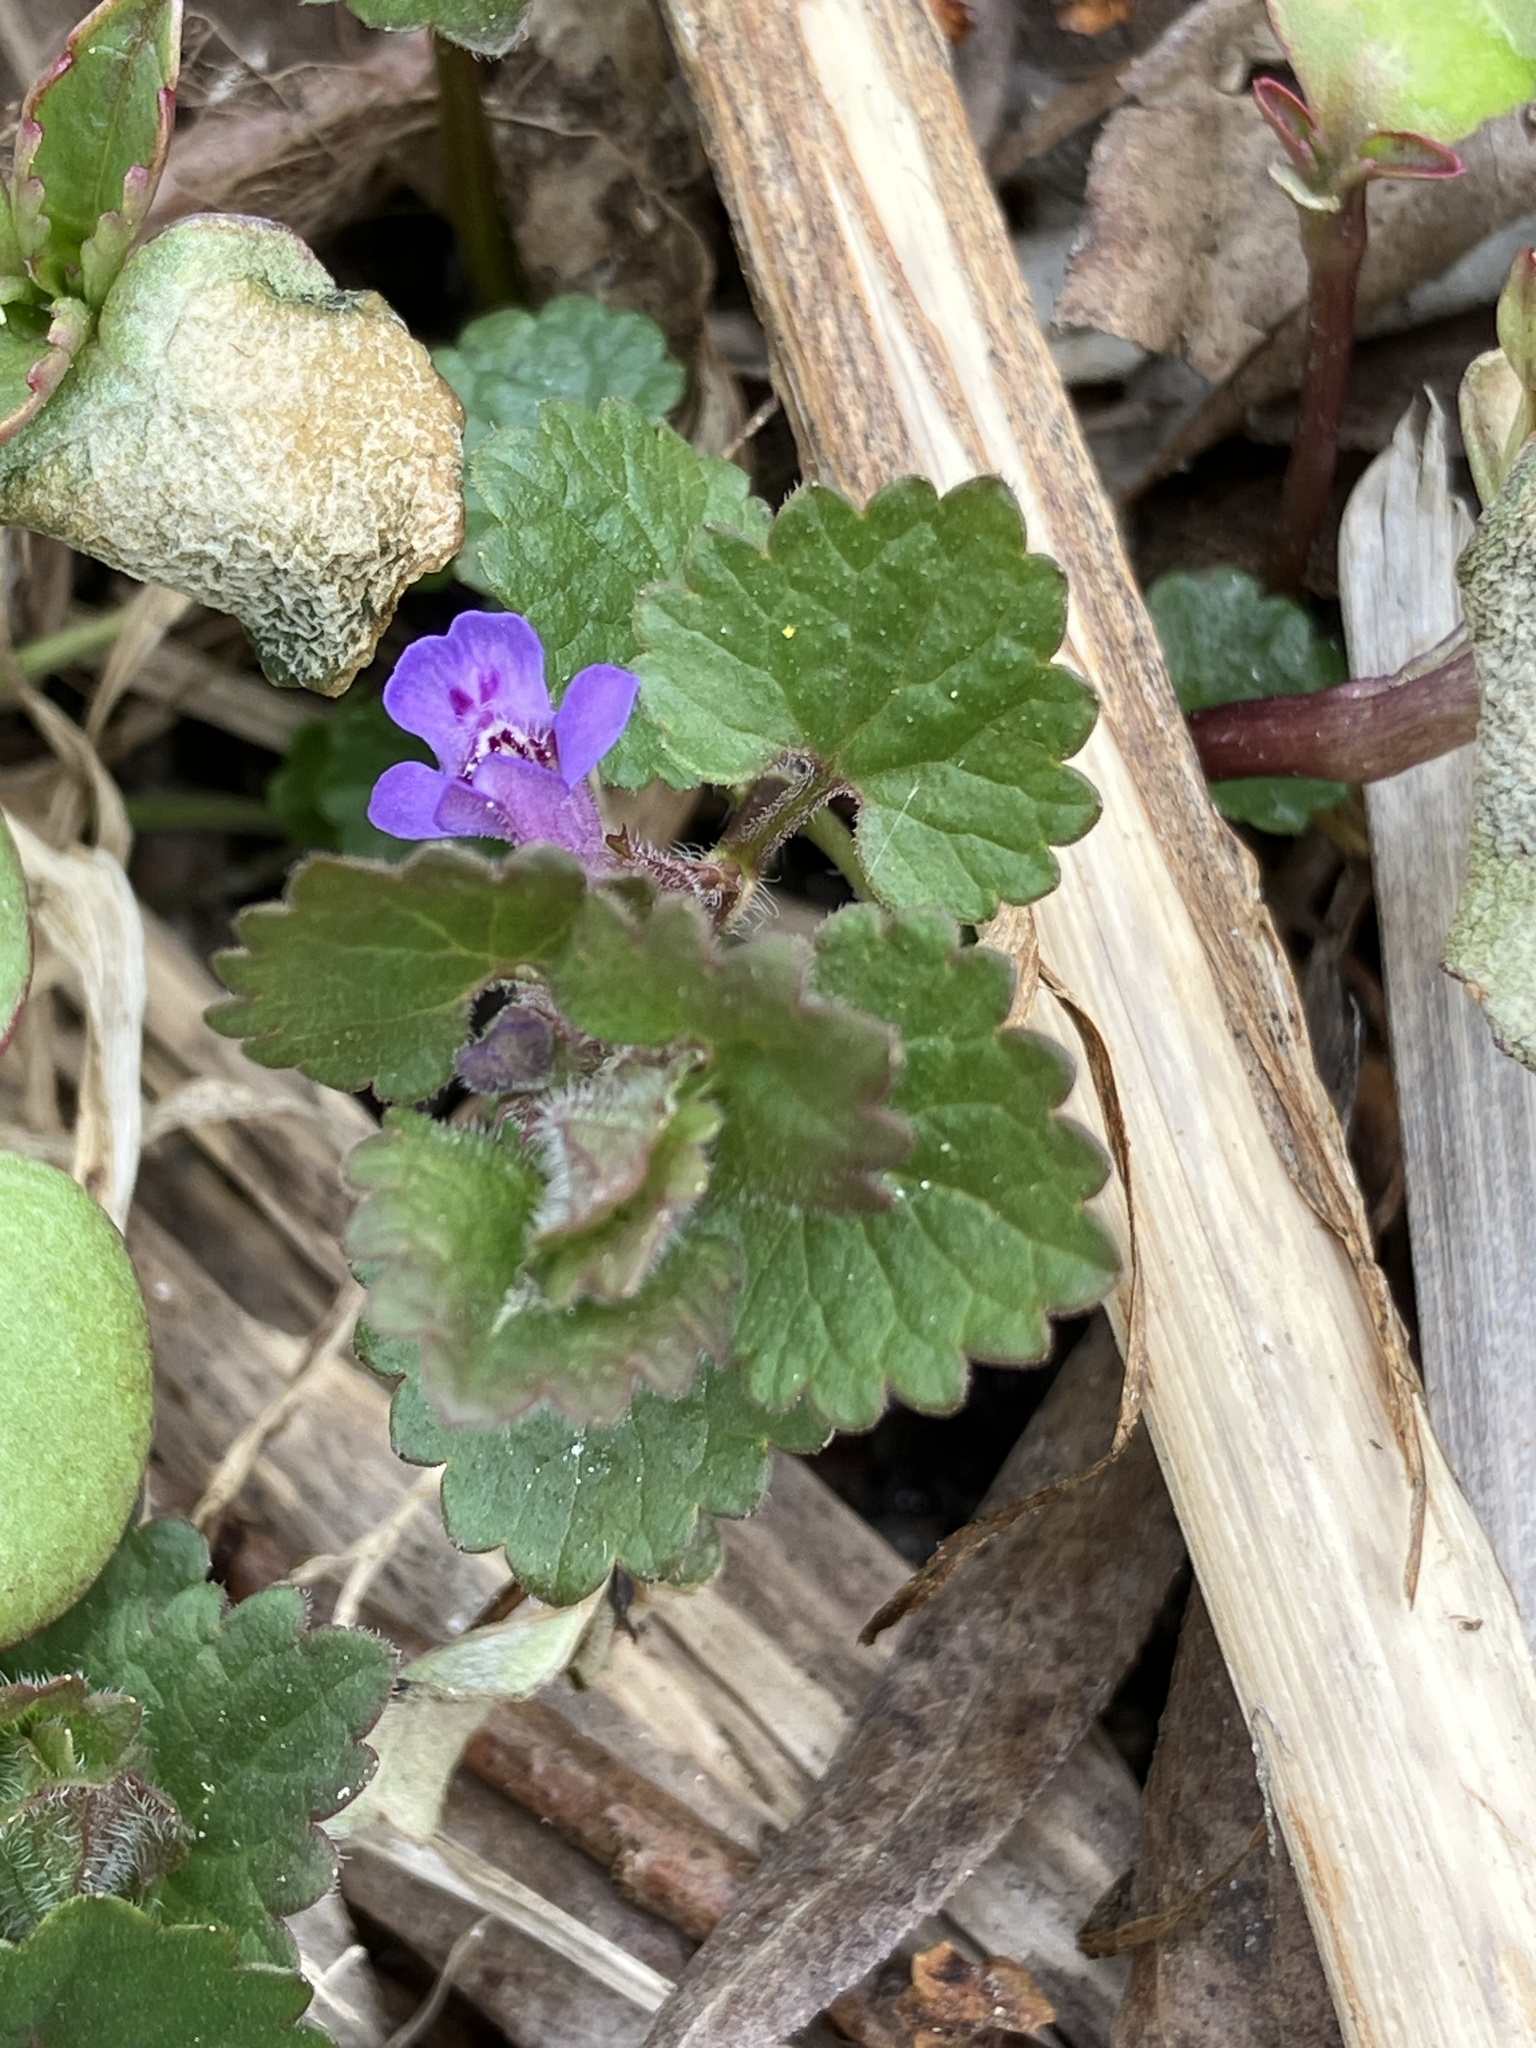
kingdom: Plantae
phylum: Tracheophyta
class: Magnoliopsida
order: Lamiales
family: Lamiaceae
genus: Glechoma
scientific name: Glechoma hederacea
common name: Ground ivy
